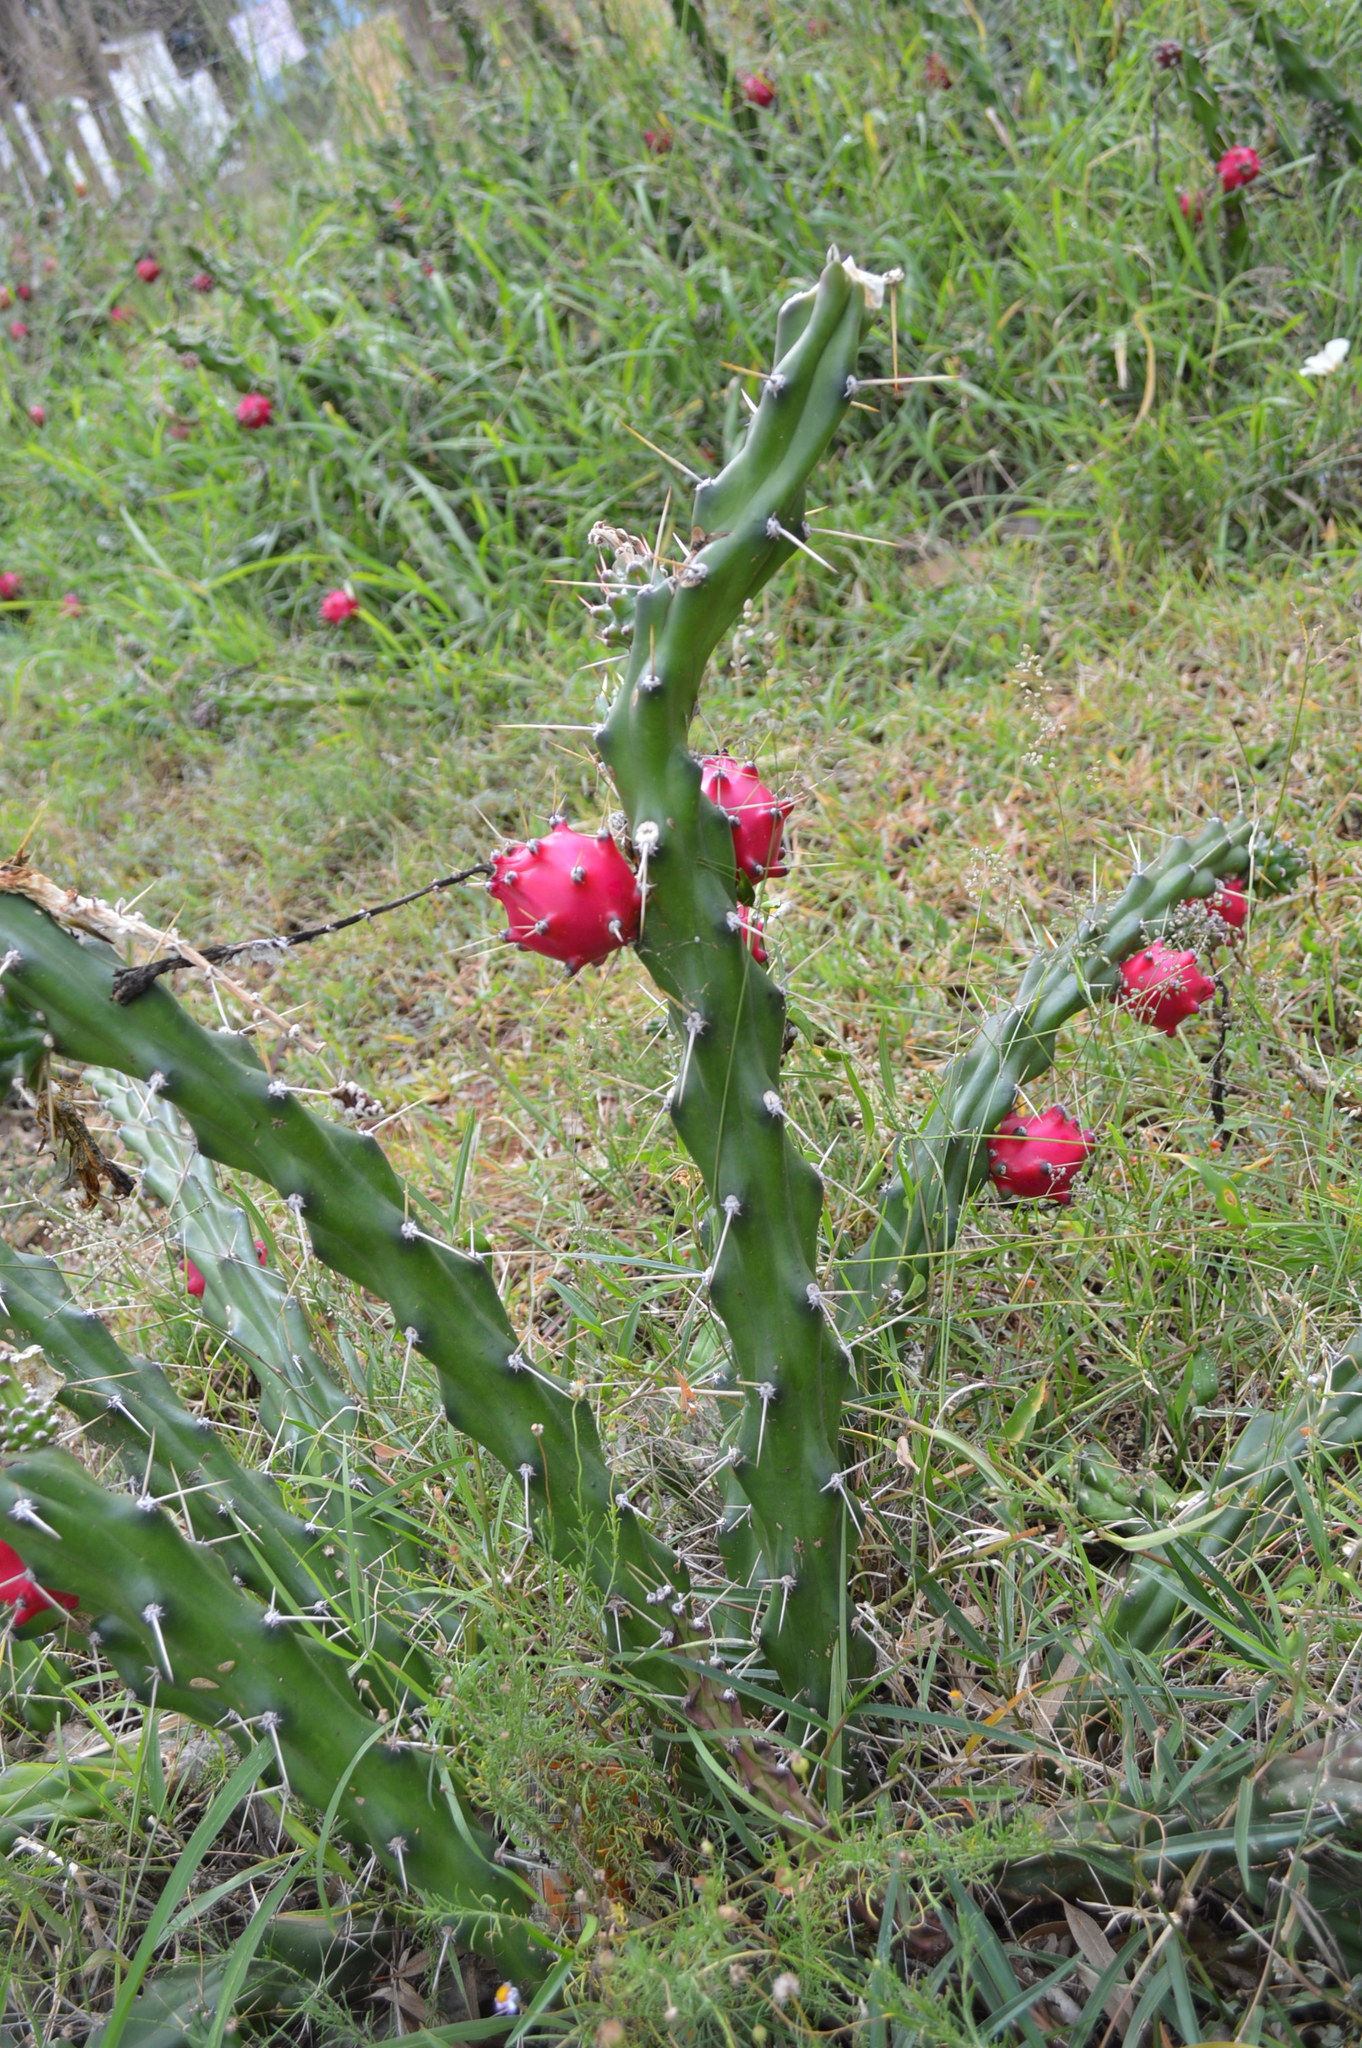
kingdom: Plantae
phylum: Tracheophyta
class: Magnoliopsida
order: Caryophyllales
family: Cactaceae
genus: Harrisia
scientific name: Harrisia martinii
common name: Moon cactus
